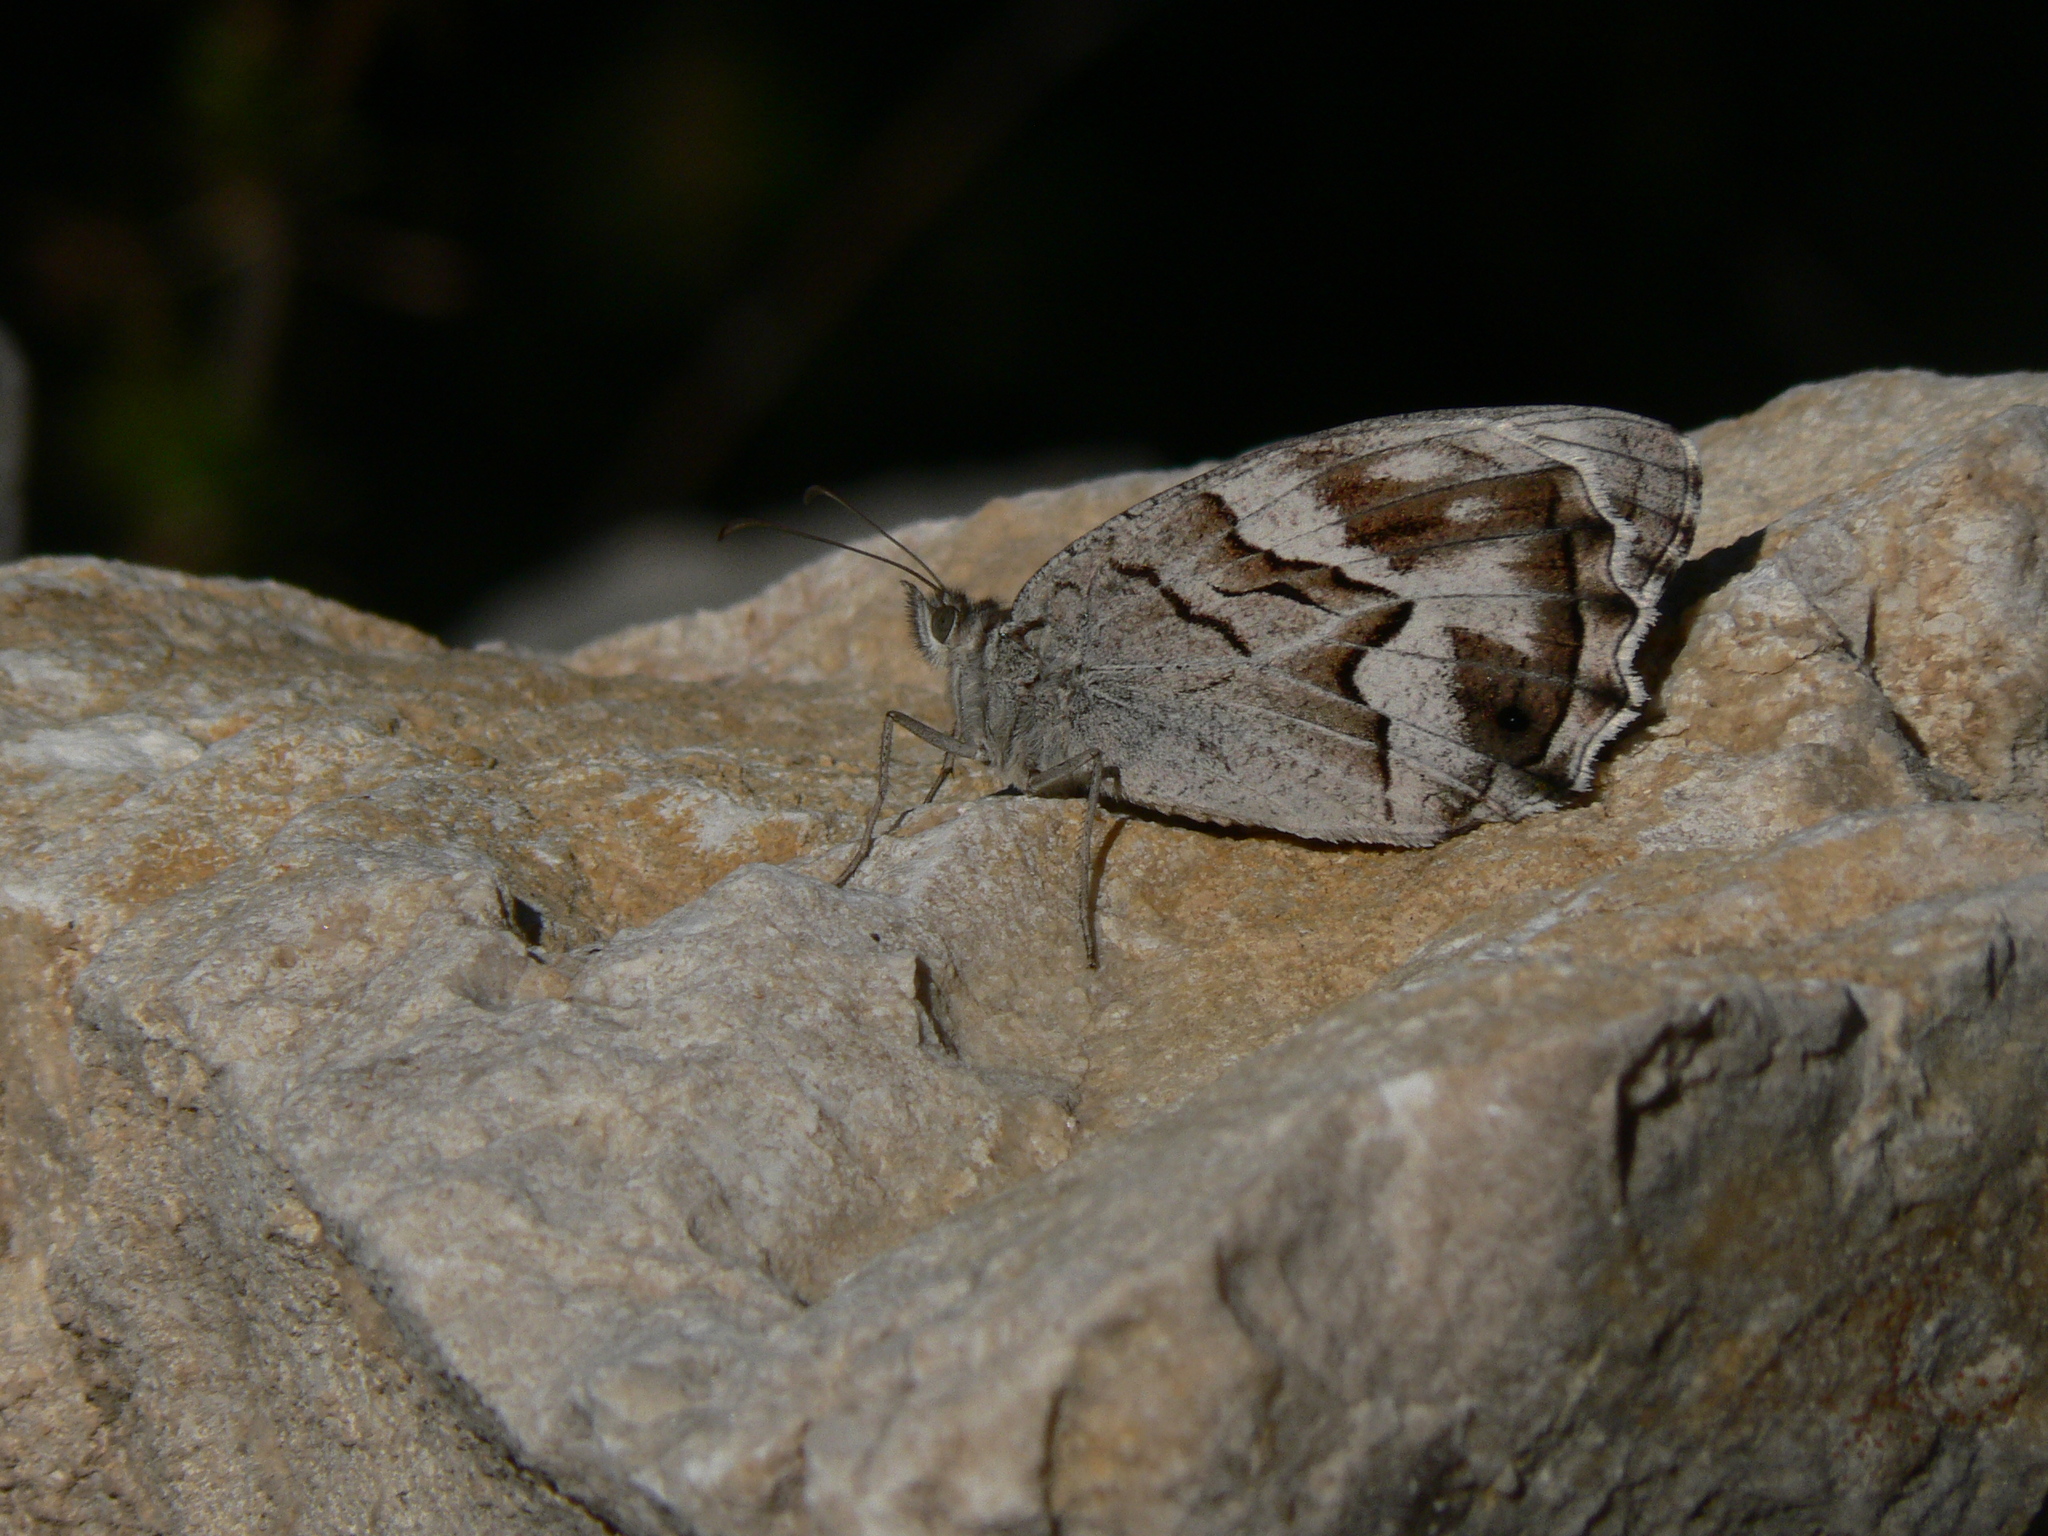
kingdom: Animalia
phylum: Arthropoda
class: Insecta
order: Lepidoptera
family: Nymphalidae
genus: Hipparchia
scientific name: Hipparchia fidia
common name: Striped grayling
